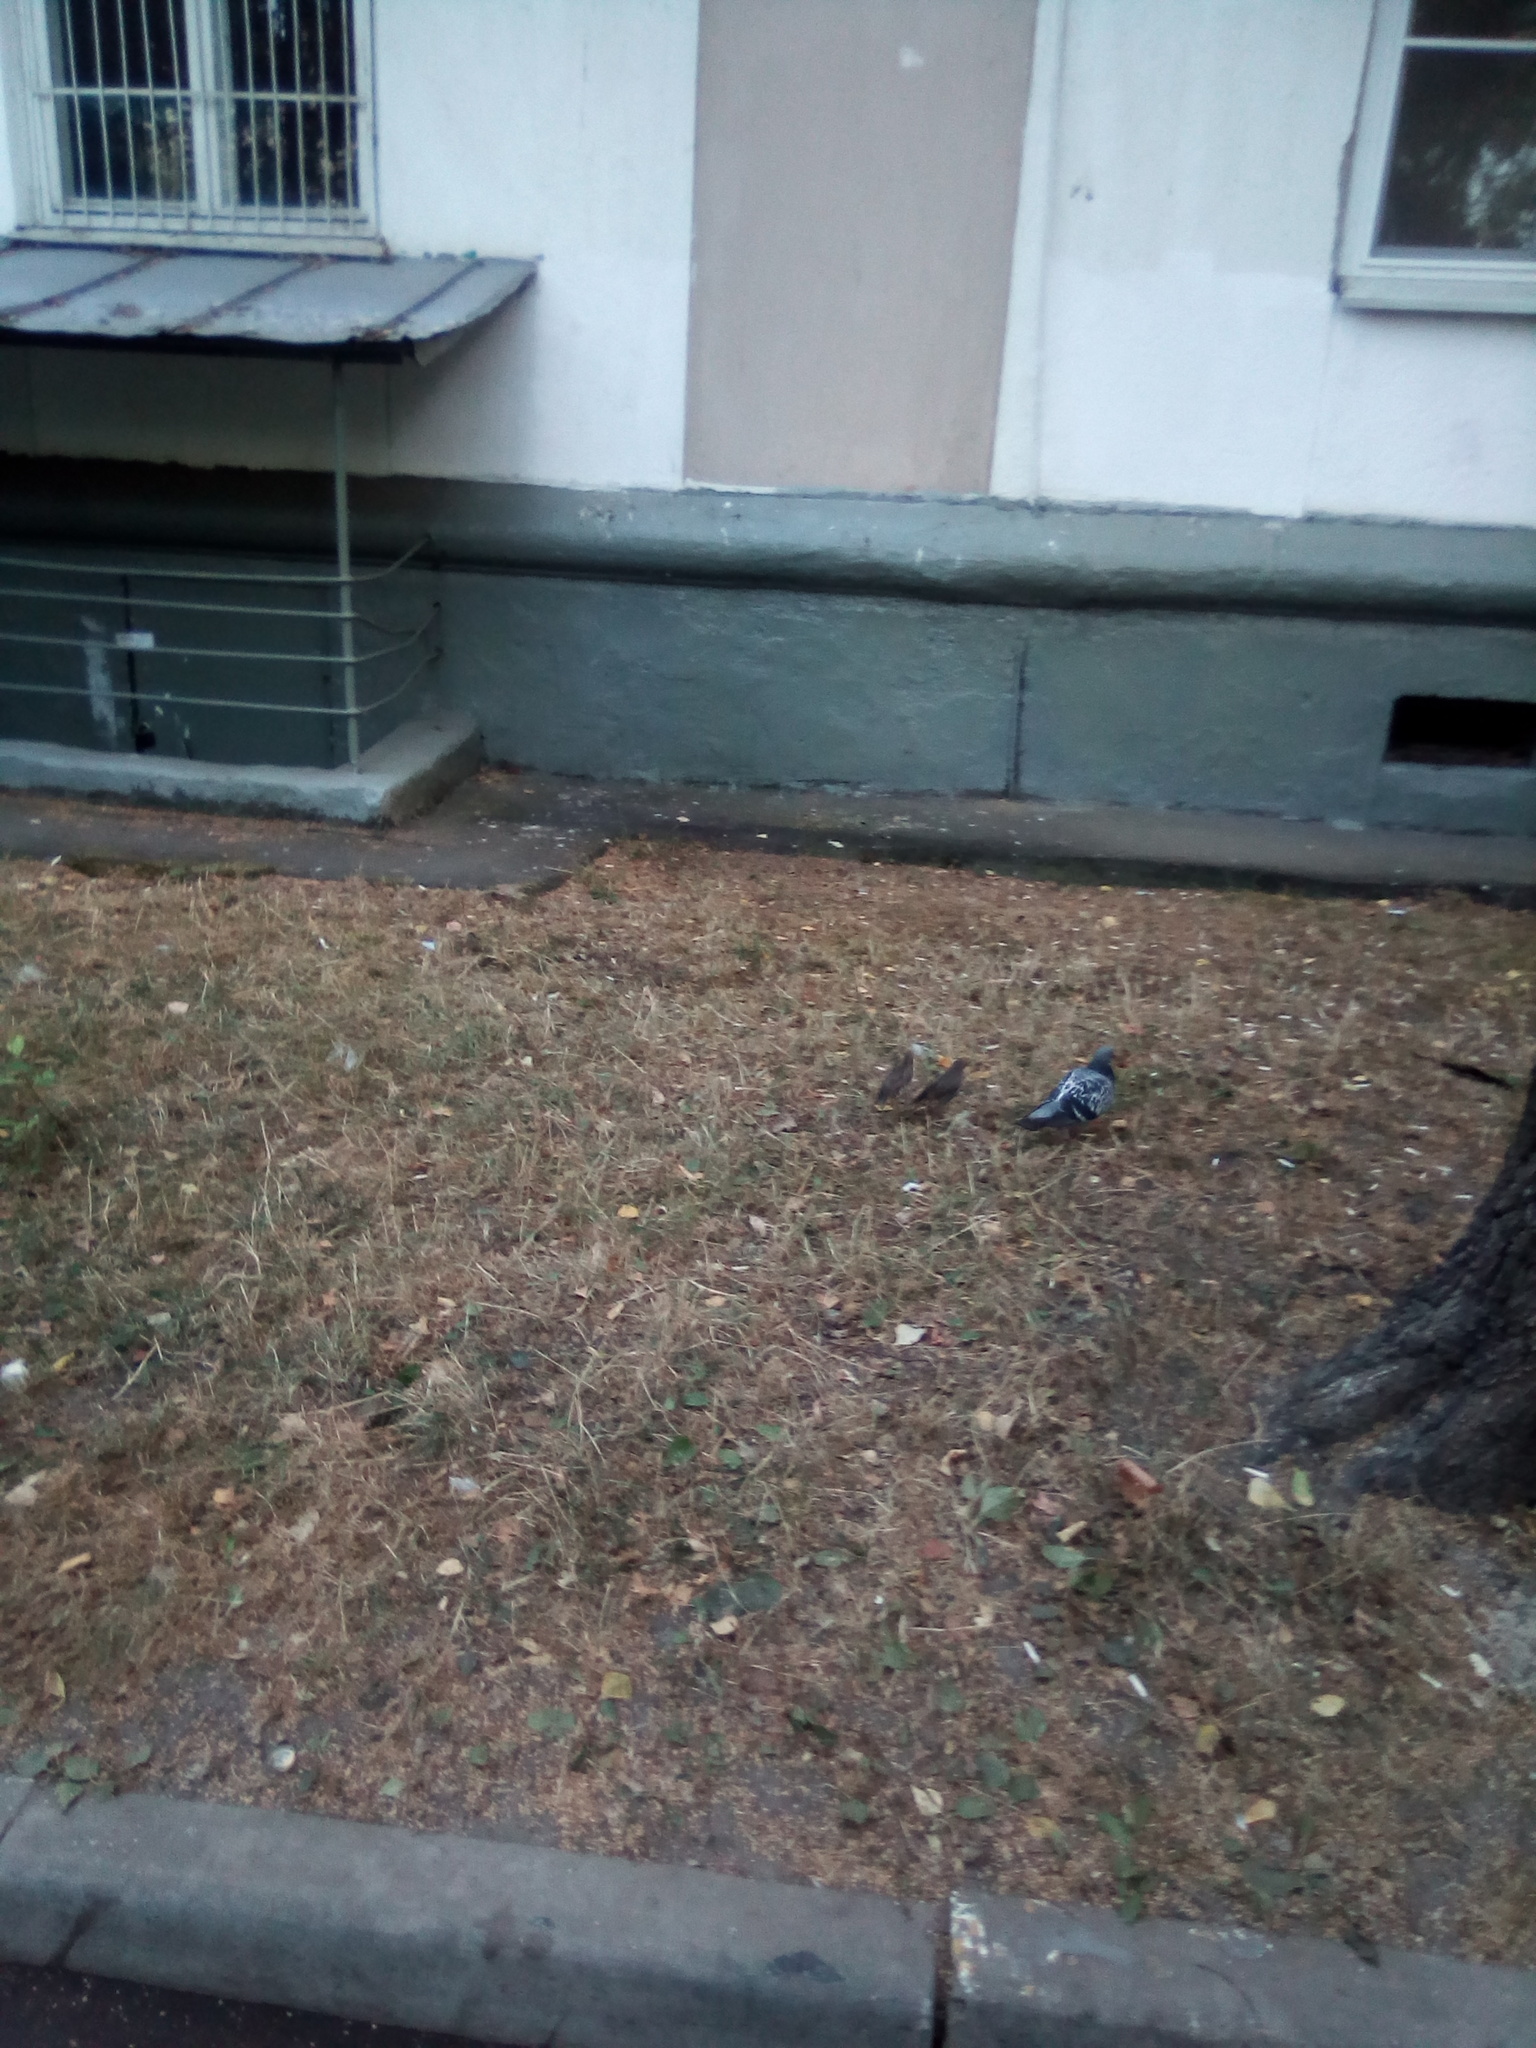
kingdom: Animalia
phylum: Chordata
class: Aves
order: Passeriformes
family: Sturnidae
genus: Sturnus
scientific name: Sturnus vulgaris
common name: Common starling
